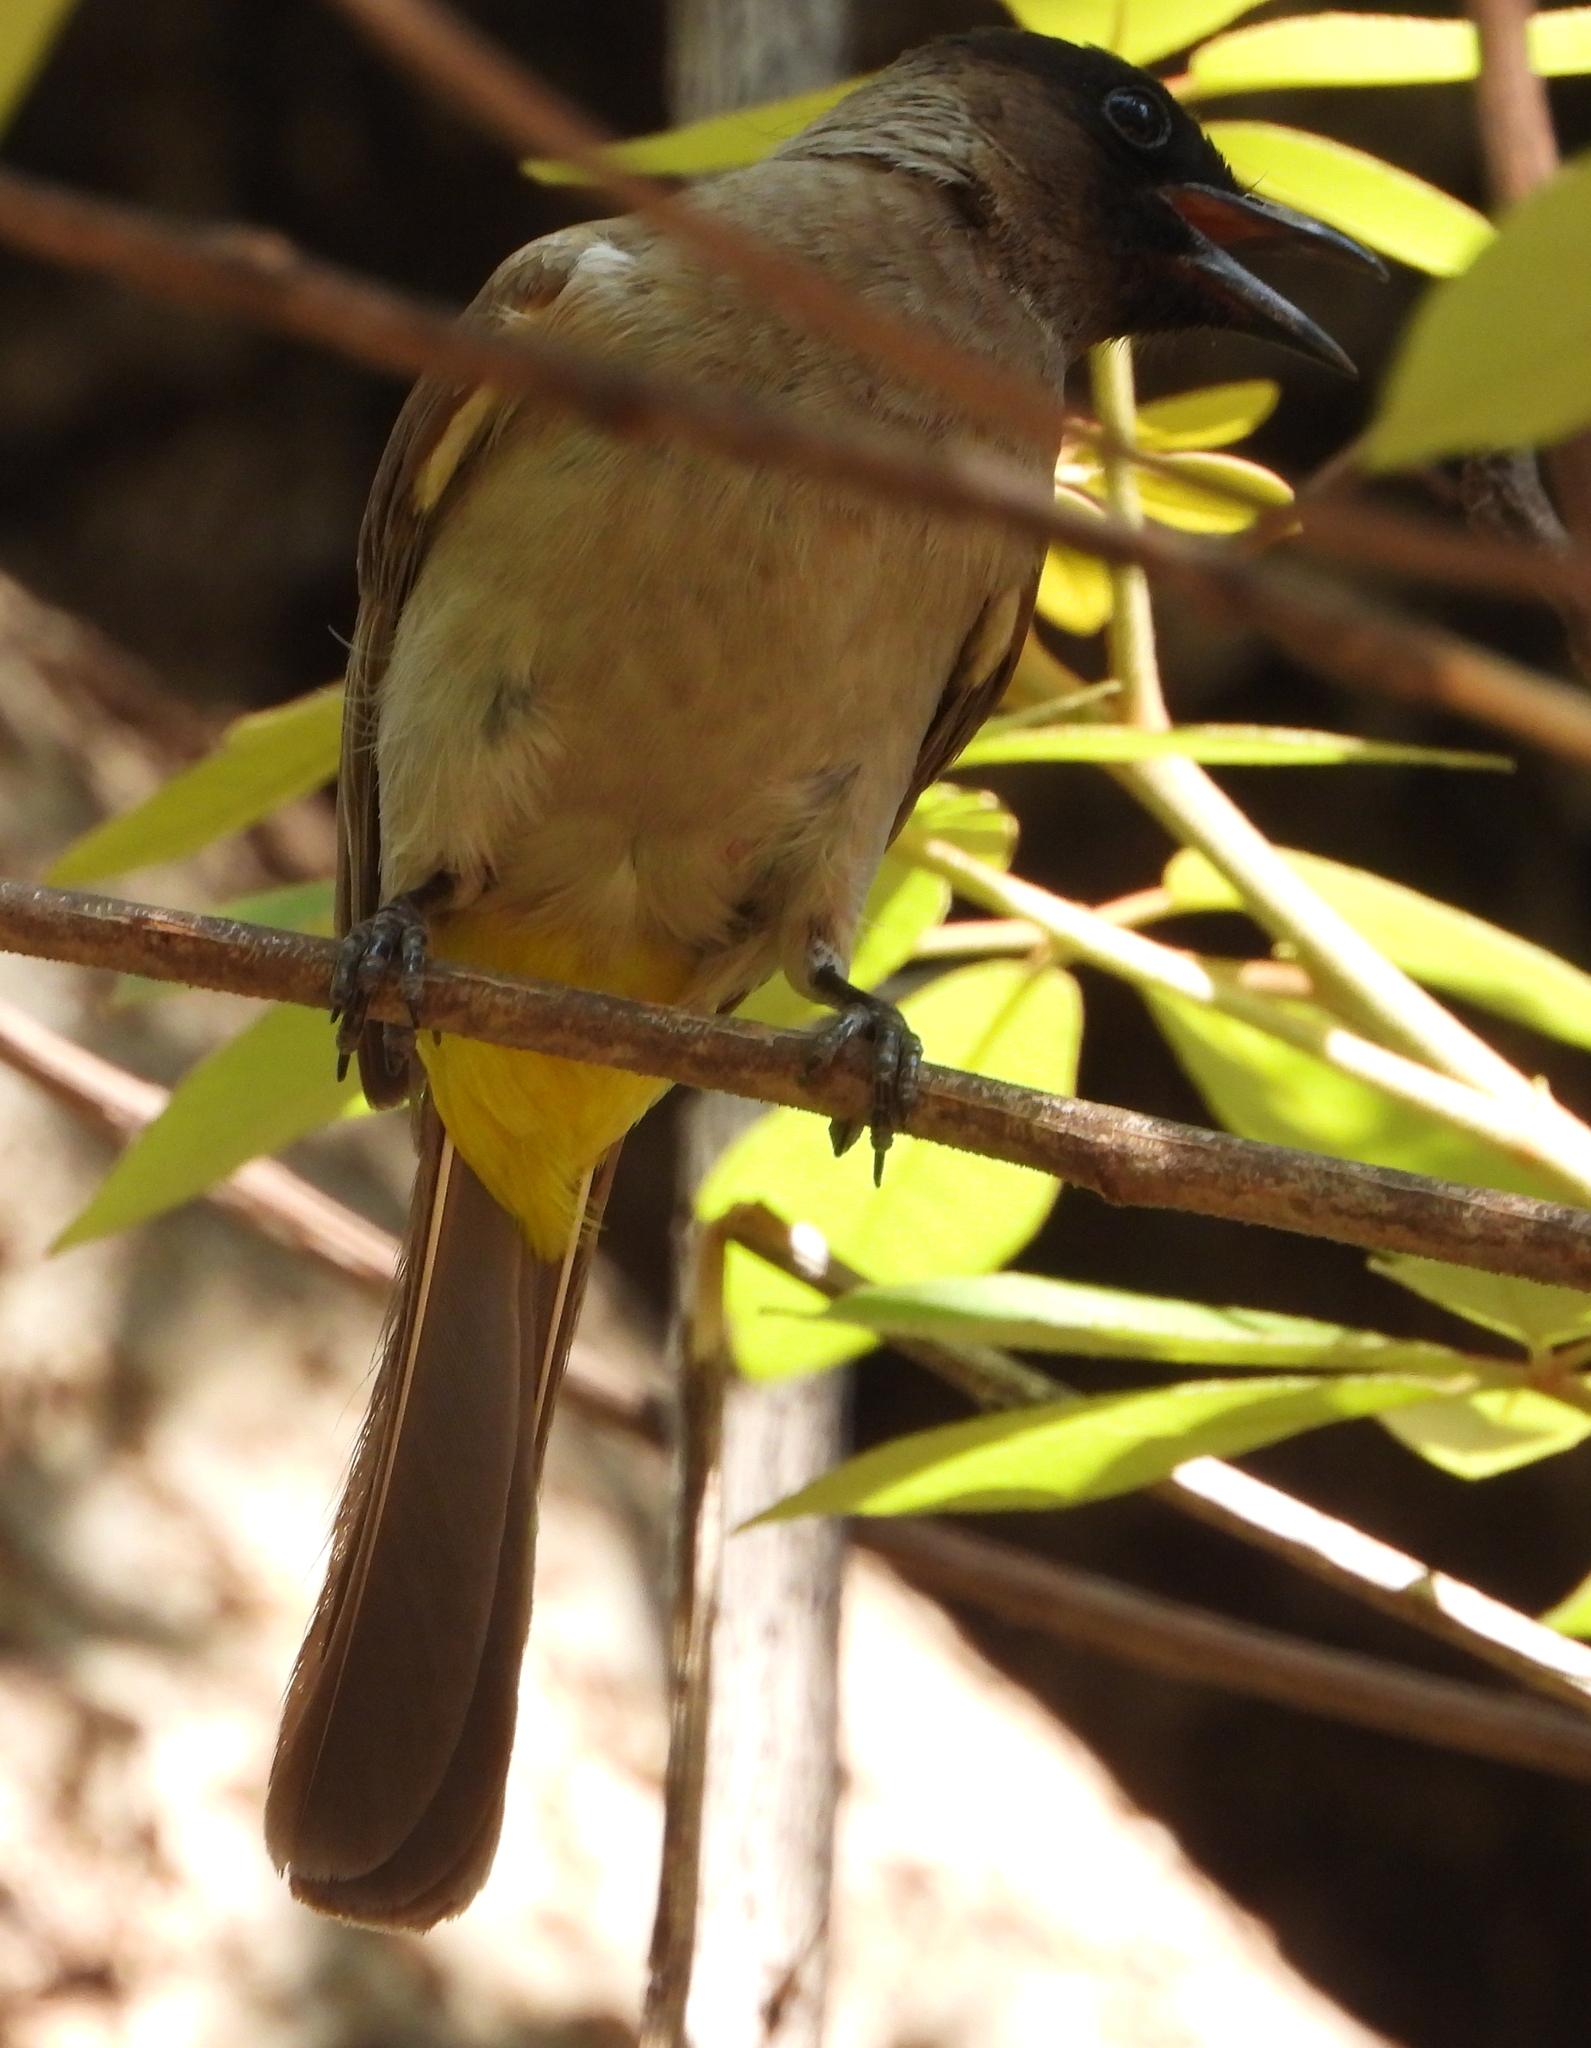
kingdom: Animalia
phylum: Chordata
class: Aves
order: Passeriformes
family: Pycnonotidae
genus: Pycnonotus
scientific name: Pycnonotus barbatus
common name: Common bulbul
